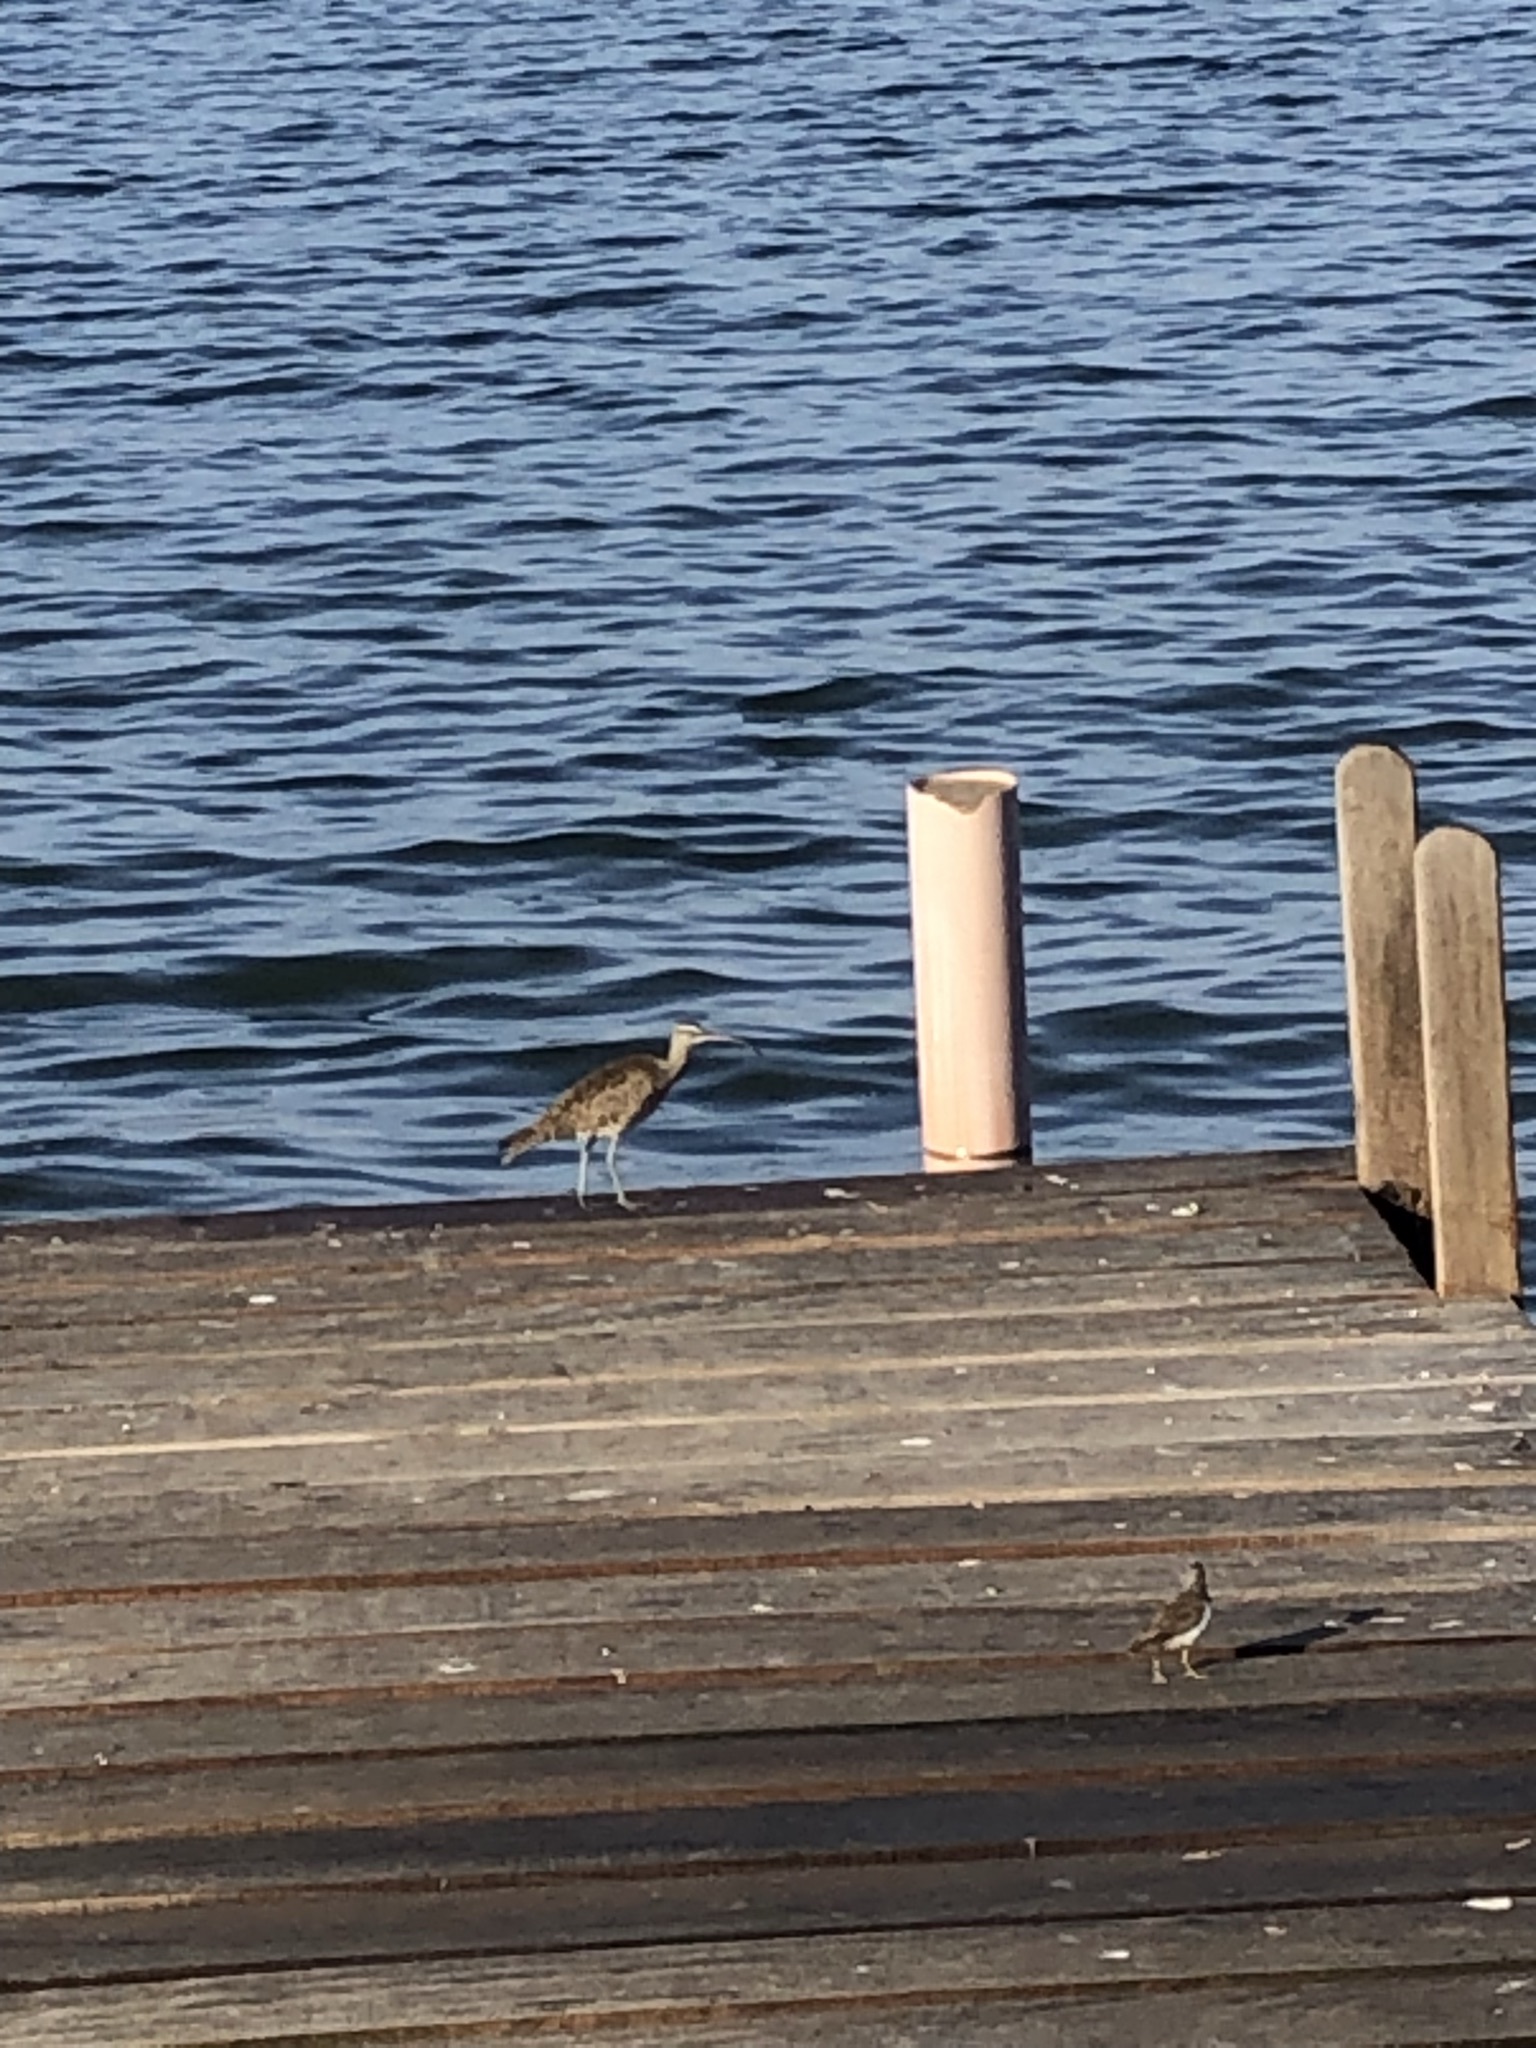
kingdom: Animalia
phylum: Chordata
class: Aves
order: Charadriiformes
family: Scolopacidae
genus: Numenius
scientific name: Numenius phaeopus
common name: Whimbrel
